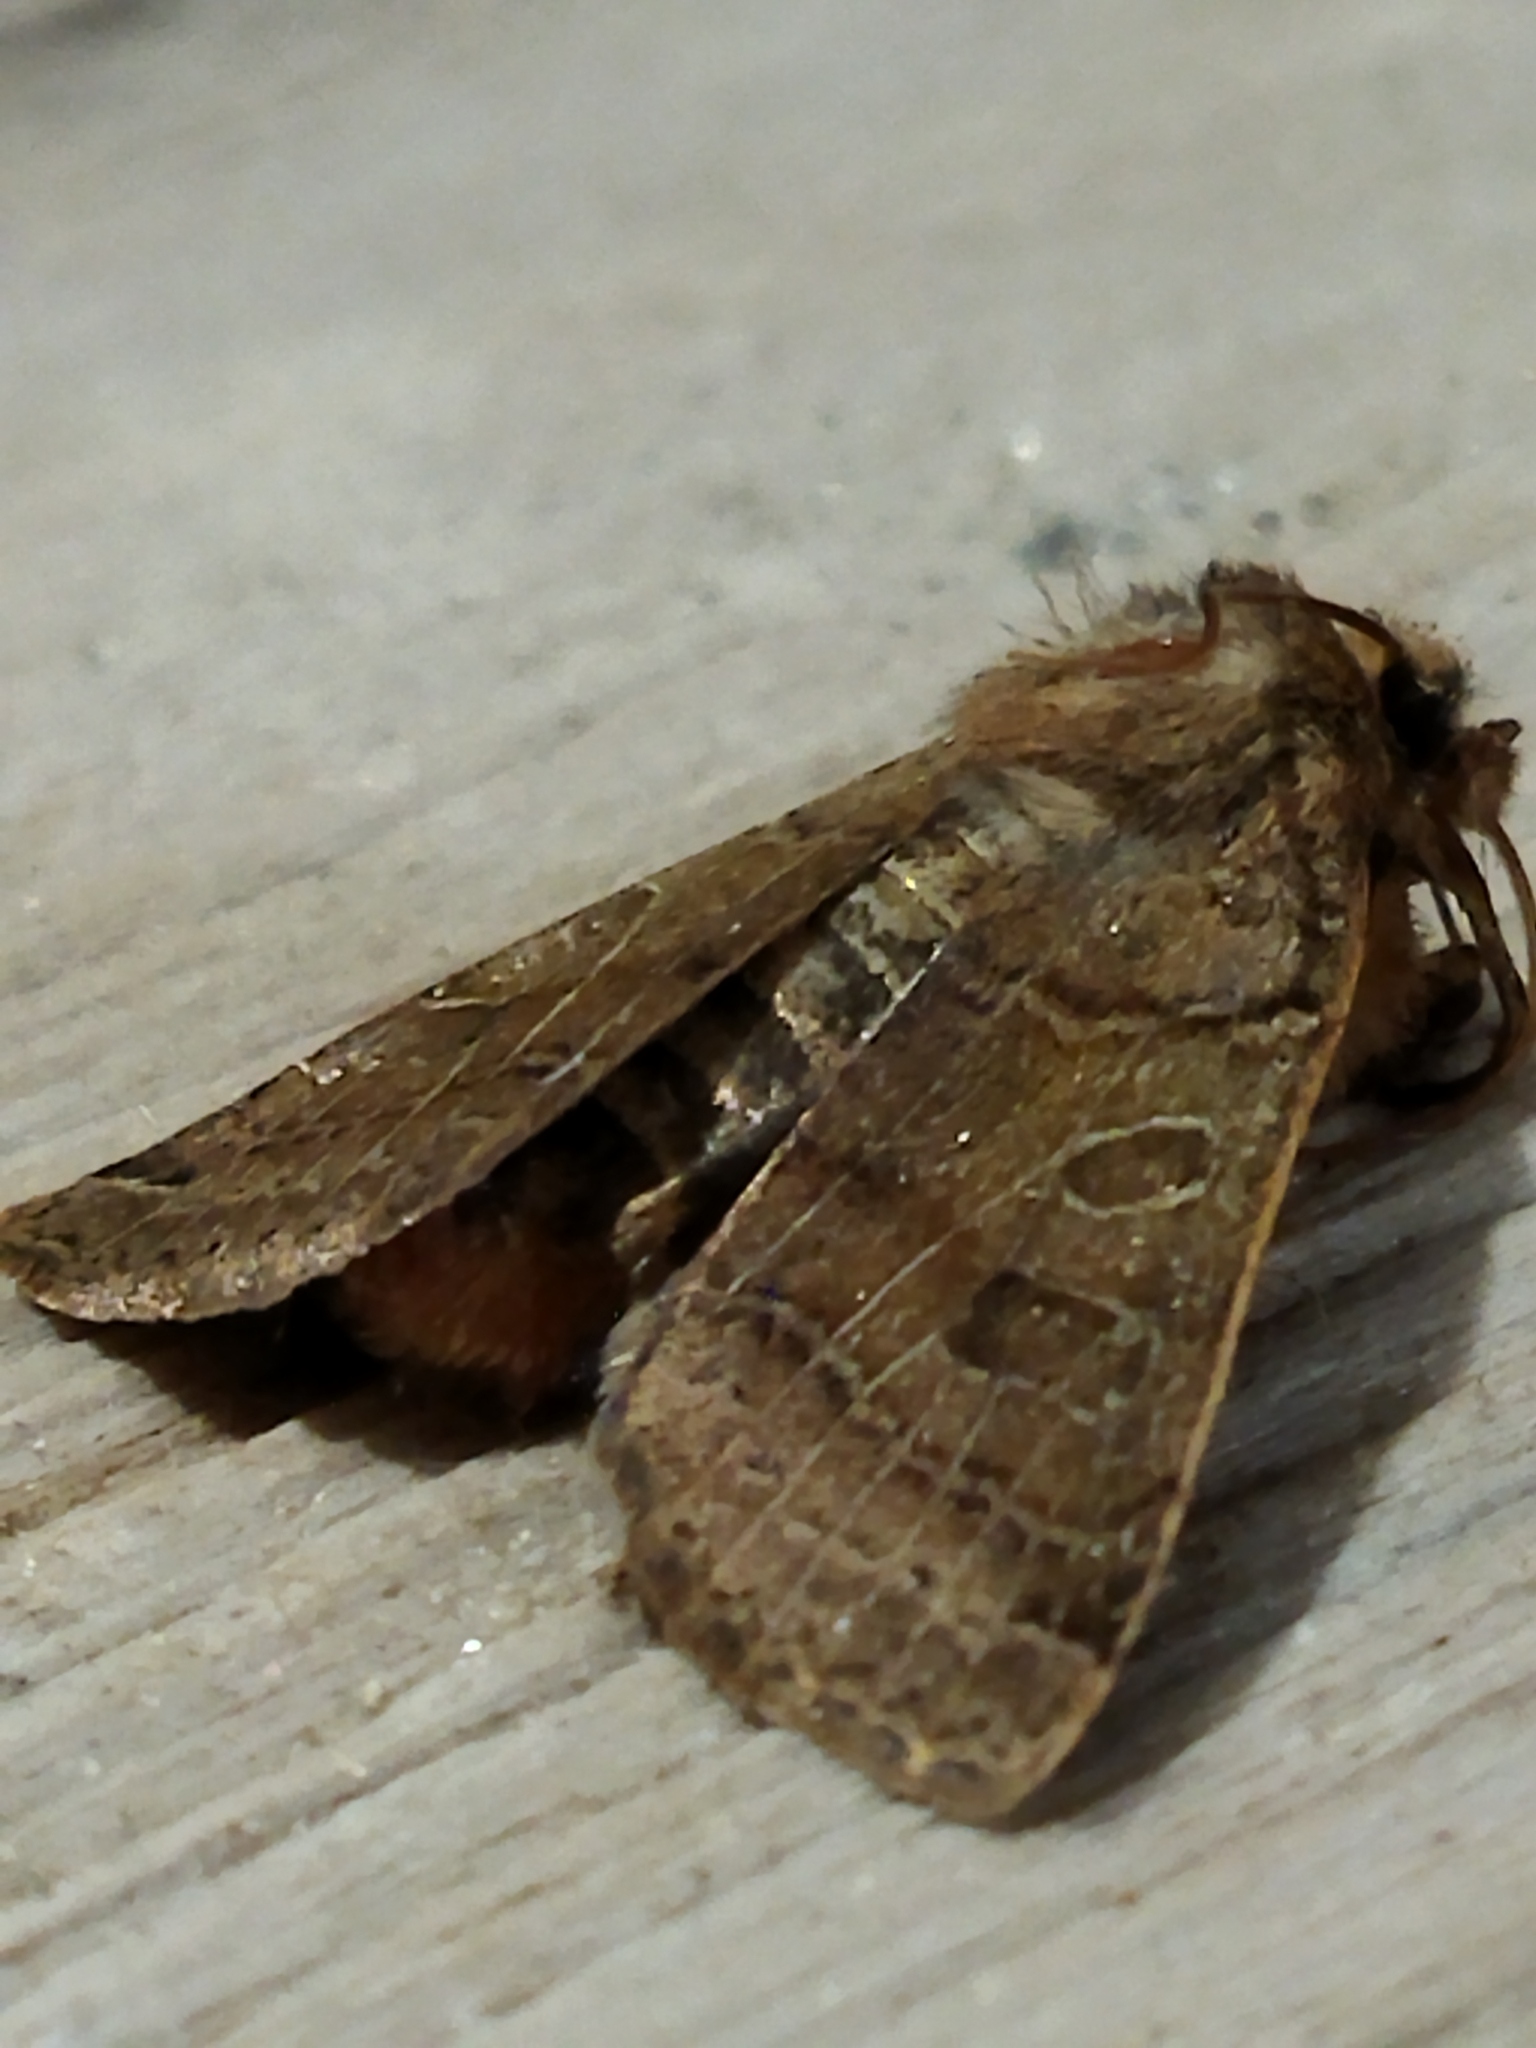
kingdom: Animalia
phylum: Arthropoda
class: Insecta
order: Lepidoptera
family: Noctuidae
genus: Agrochola
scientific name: Agrochola nitida
